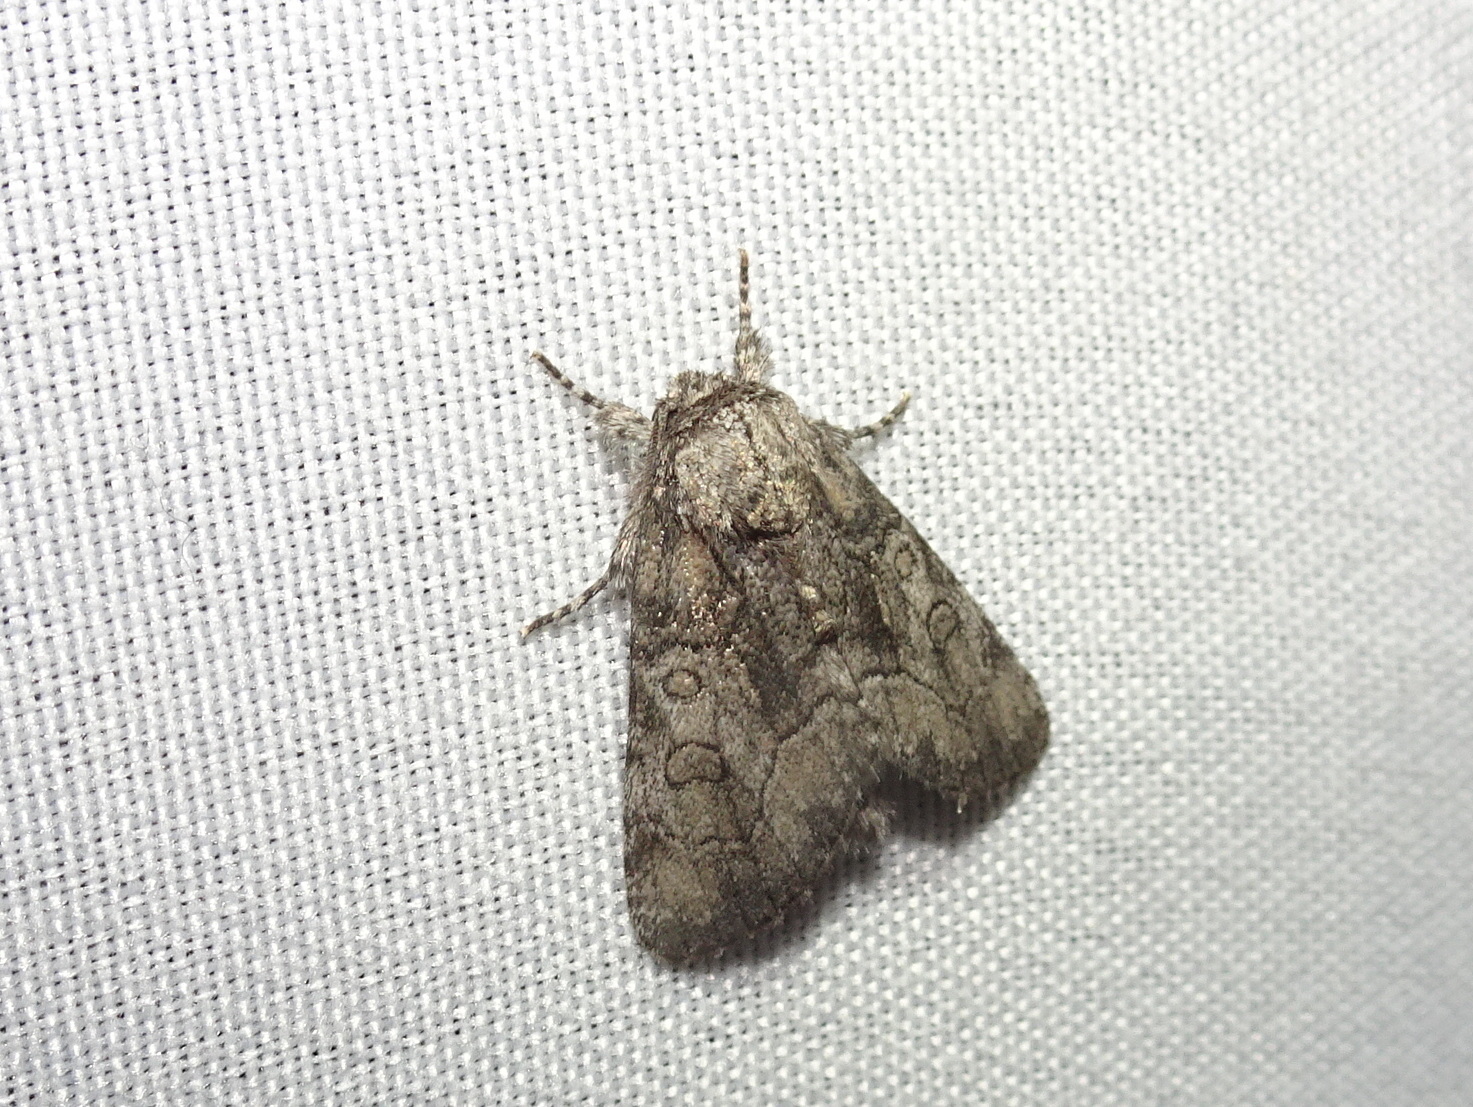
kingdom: Animalia
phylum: Arthropoda
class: Insecta
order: Lepidoptera
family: Noctuidae
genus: Raphia
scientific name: Raphia frater
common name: Brother
